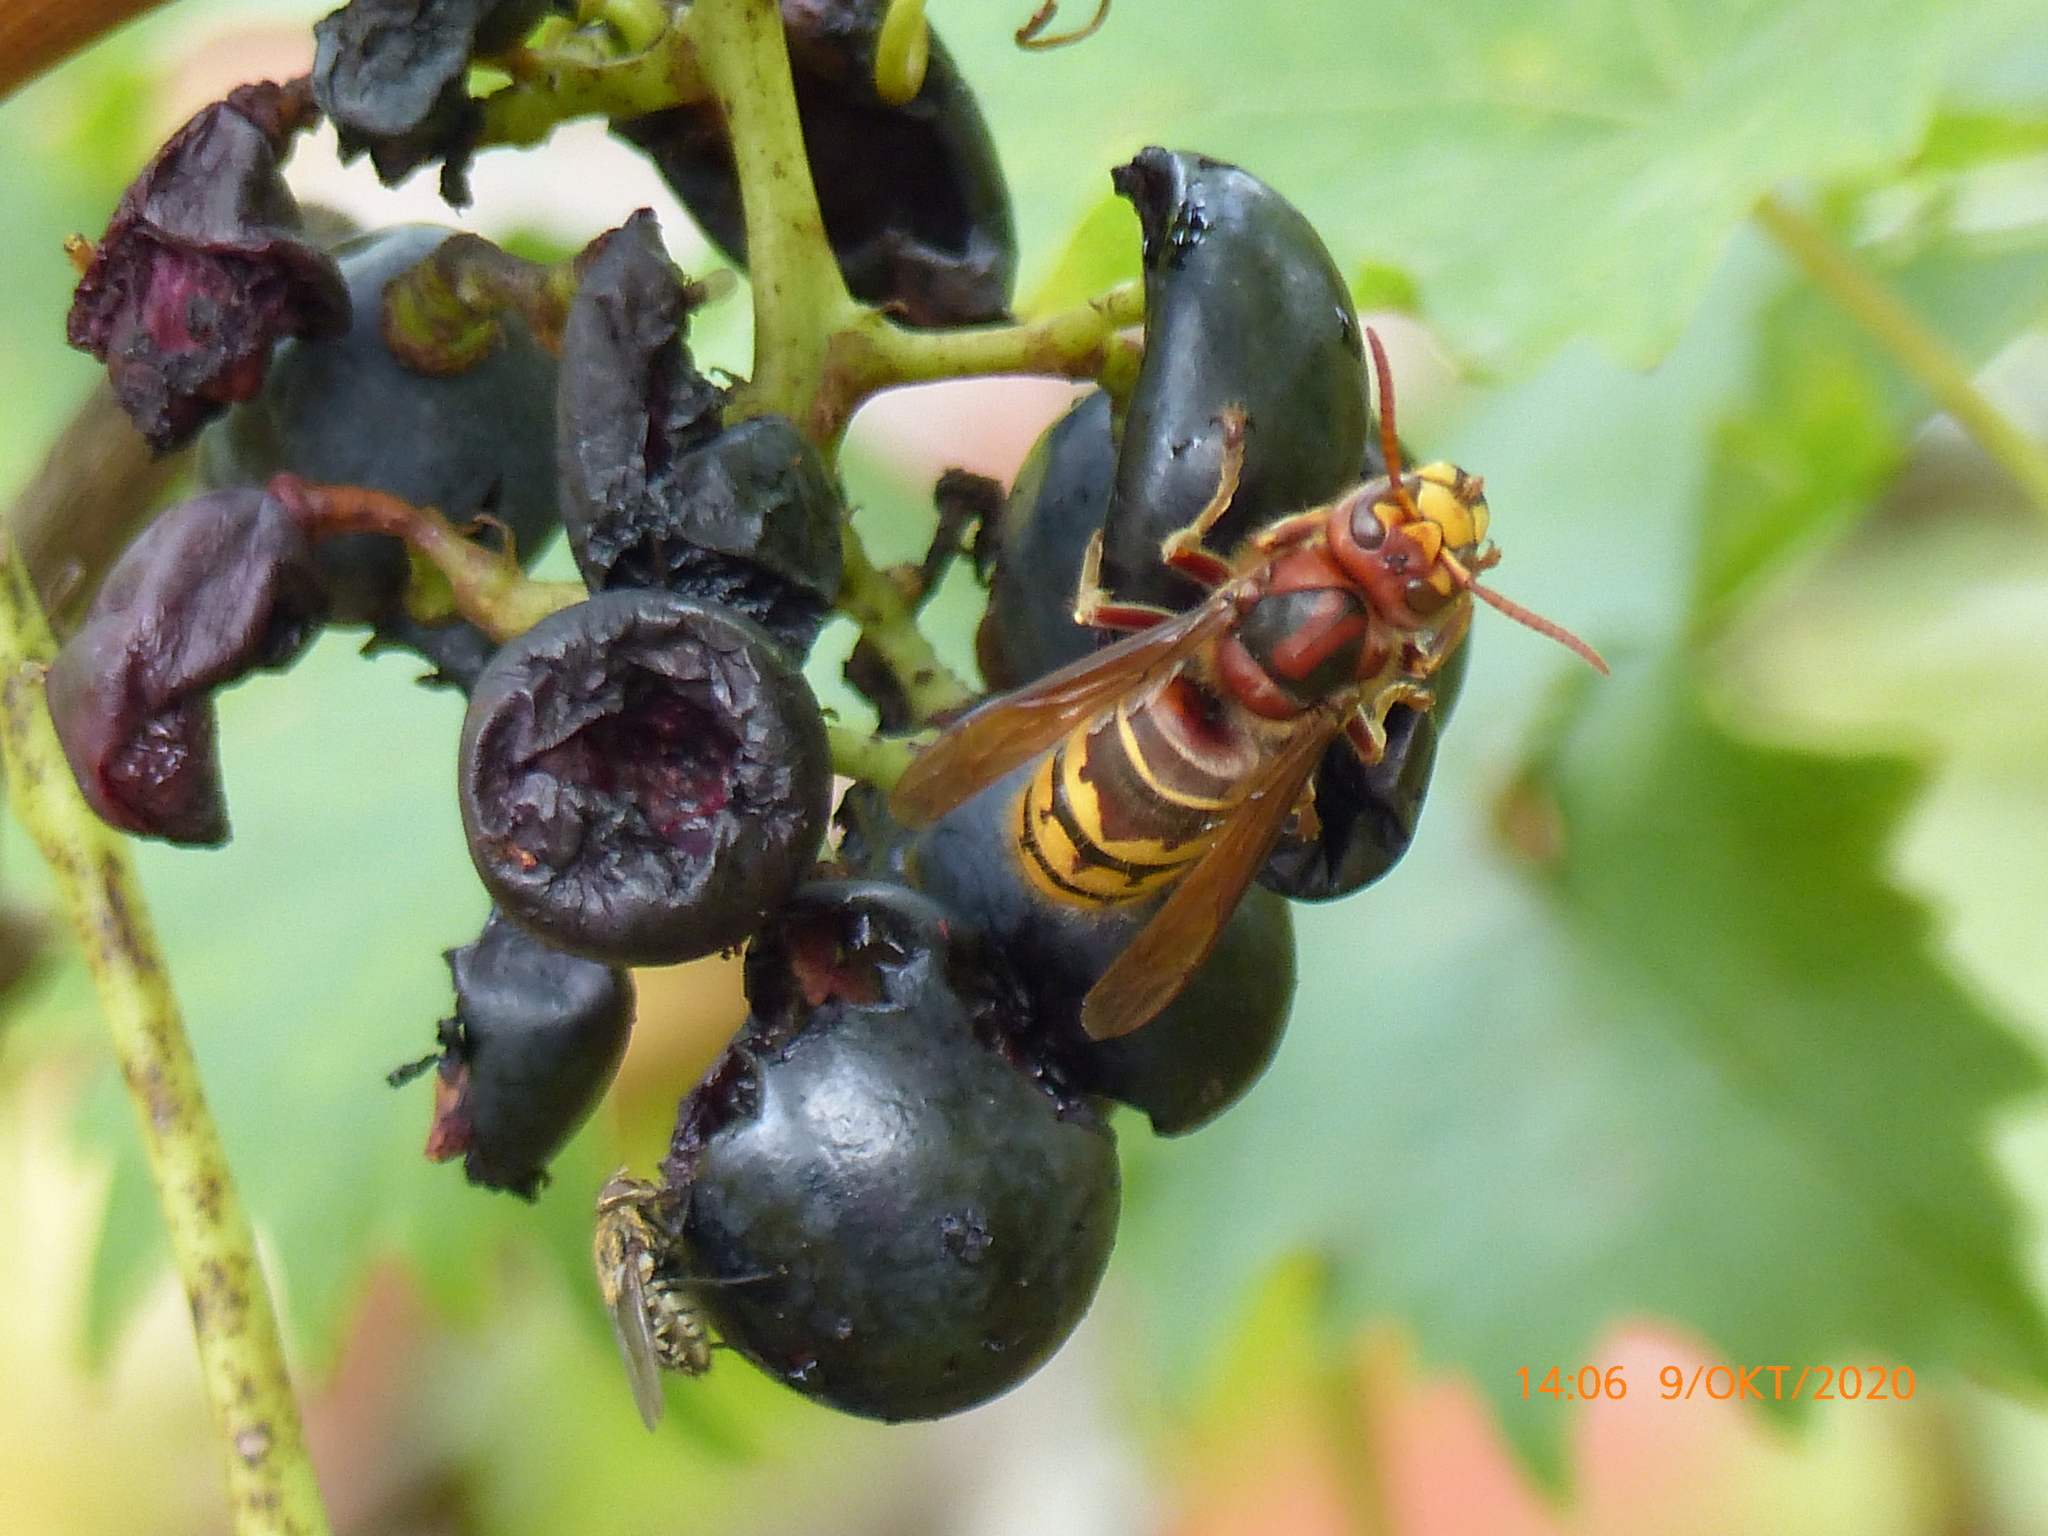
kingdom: Animalia
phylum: Arthropoda
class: Insecta
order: Hymenoptera
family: Vespidae
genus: Vespa
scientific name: Vespa crabro
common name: Hornet
